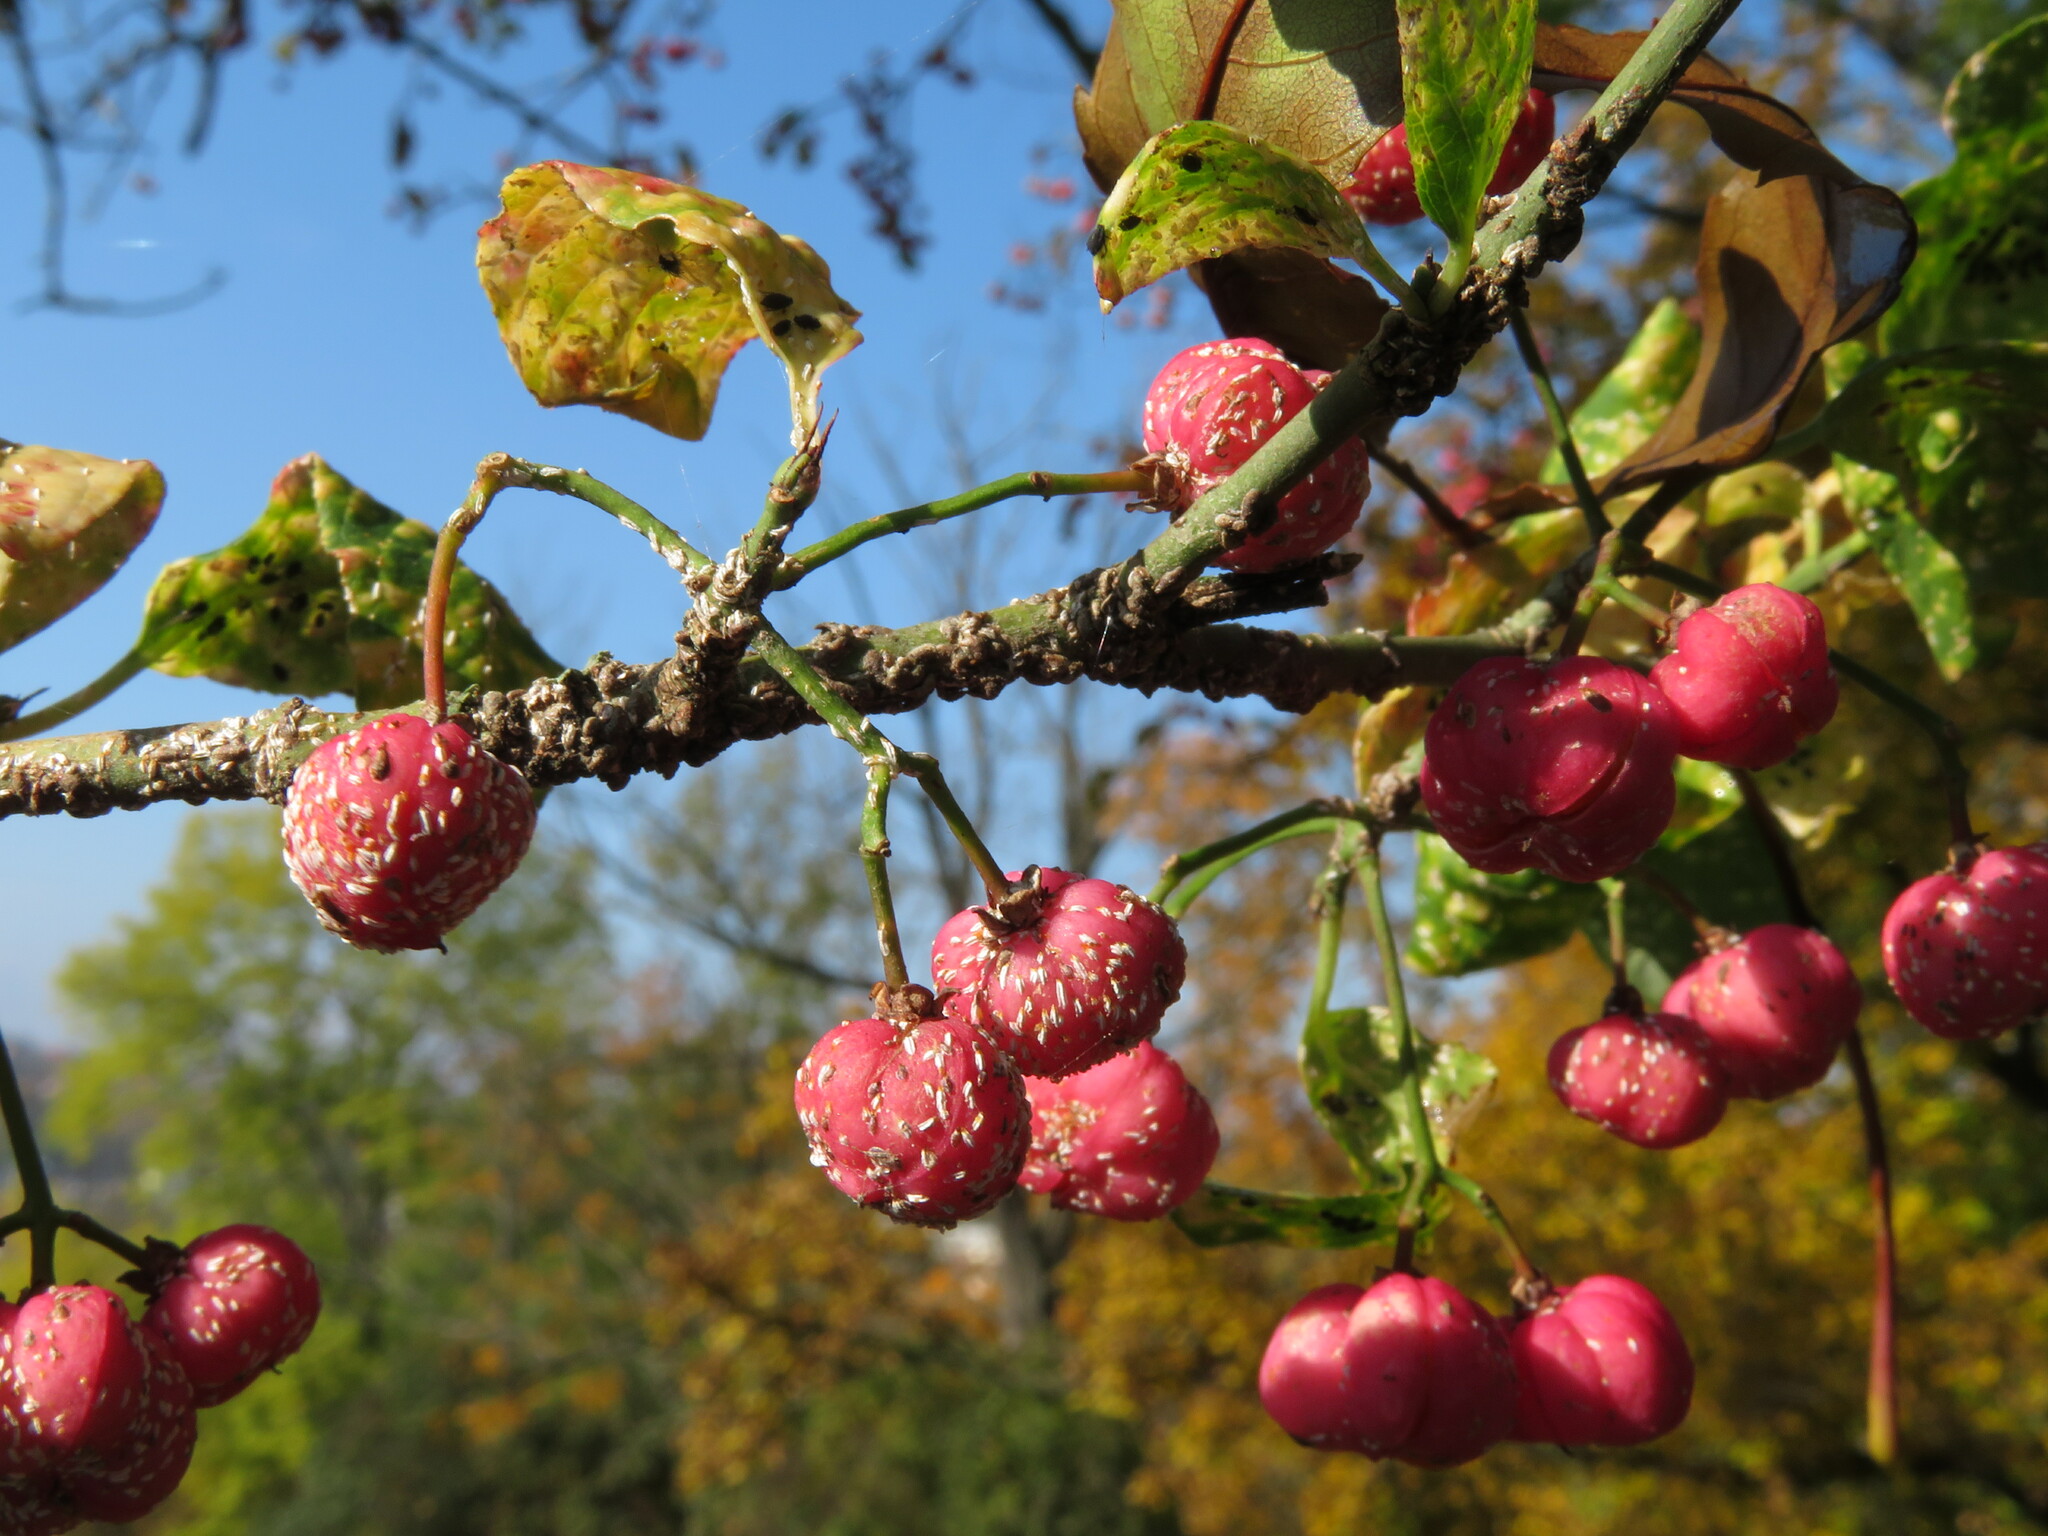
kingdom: Animalia
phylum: Arthropoda
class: Insecta
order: Hemiptera
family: Diaspididae
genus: Unaspis
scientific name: Unaspis euonymi
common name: Euonymus scale
